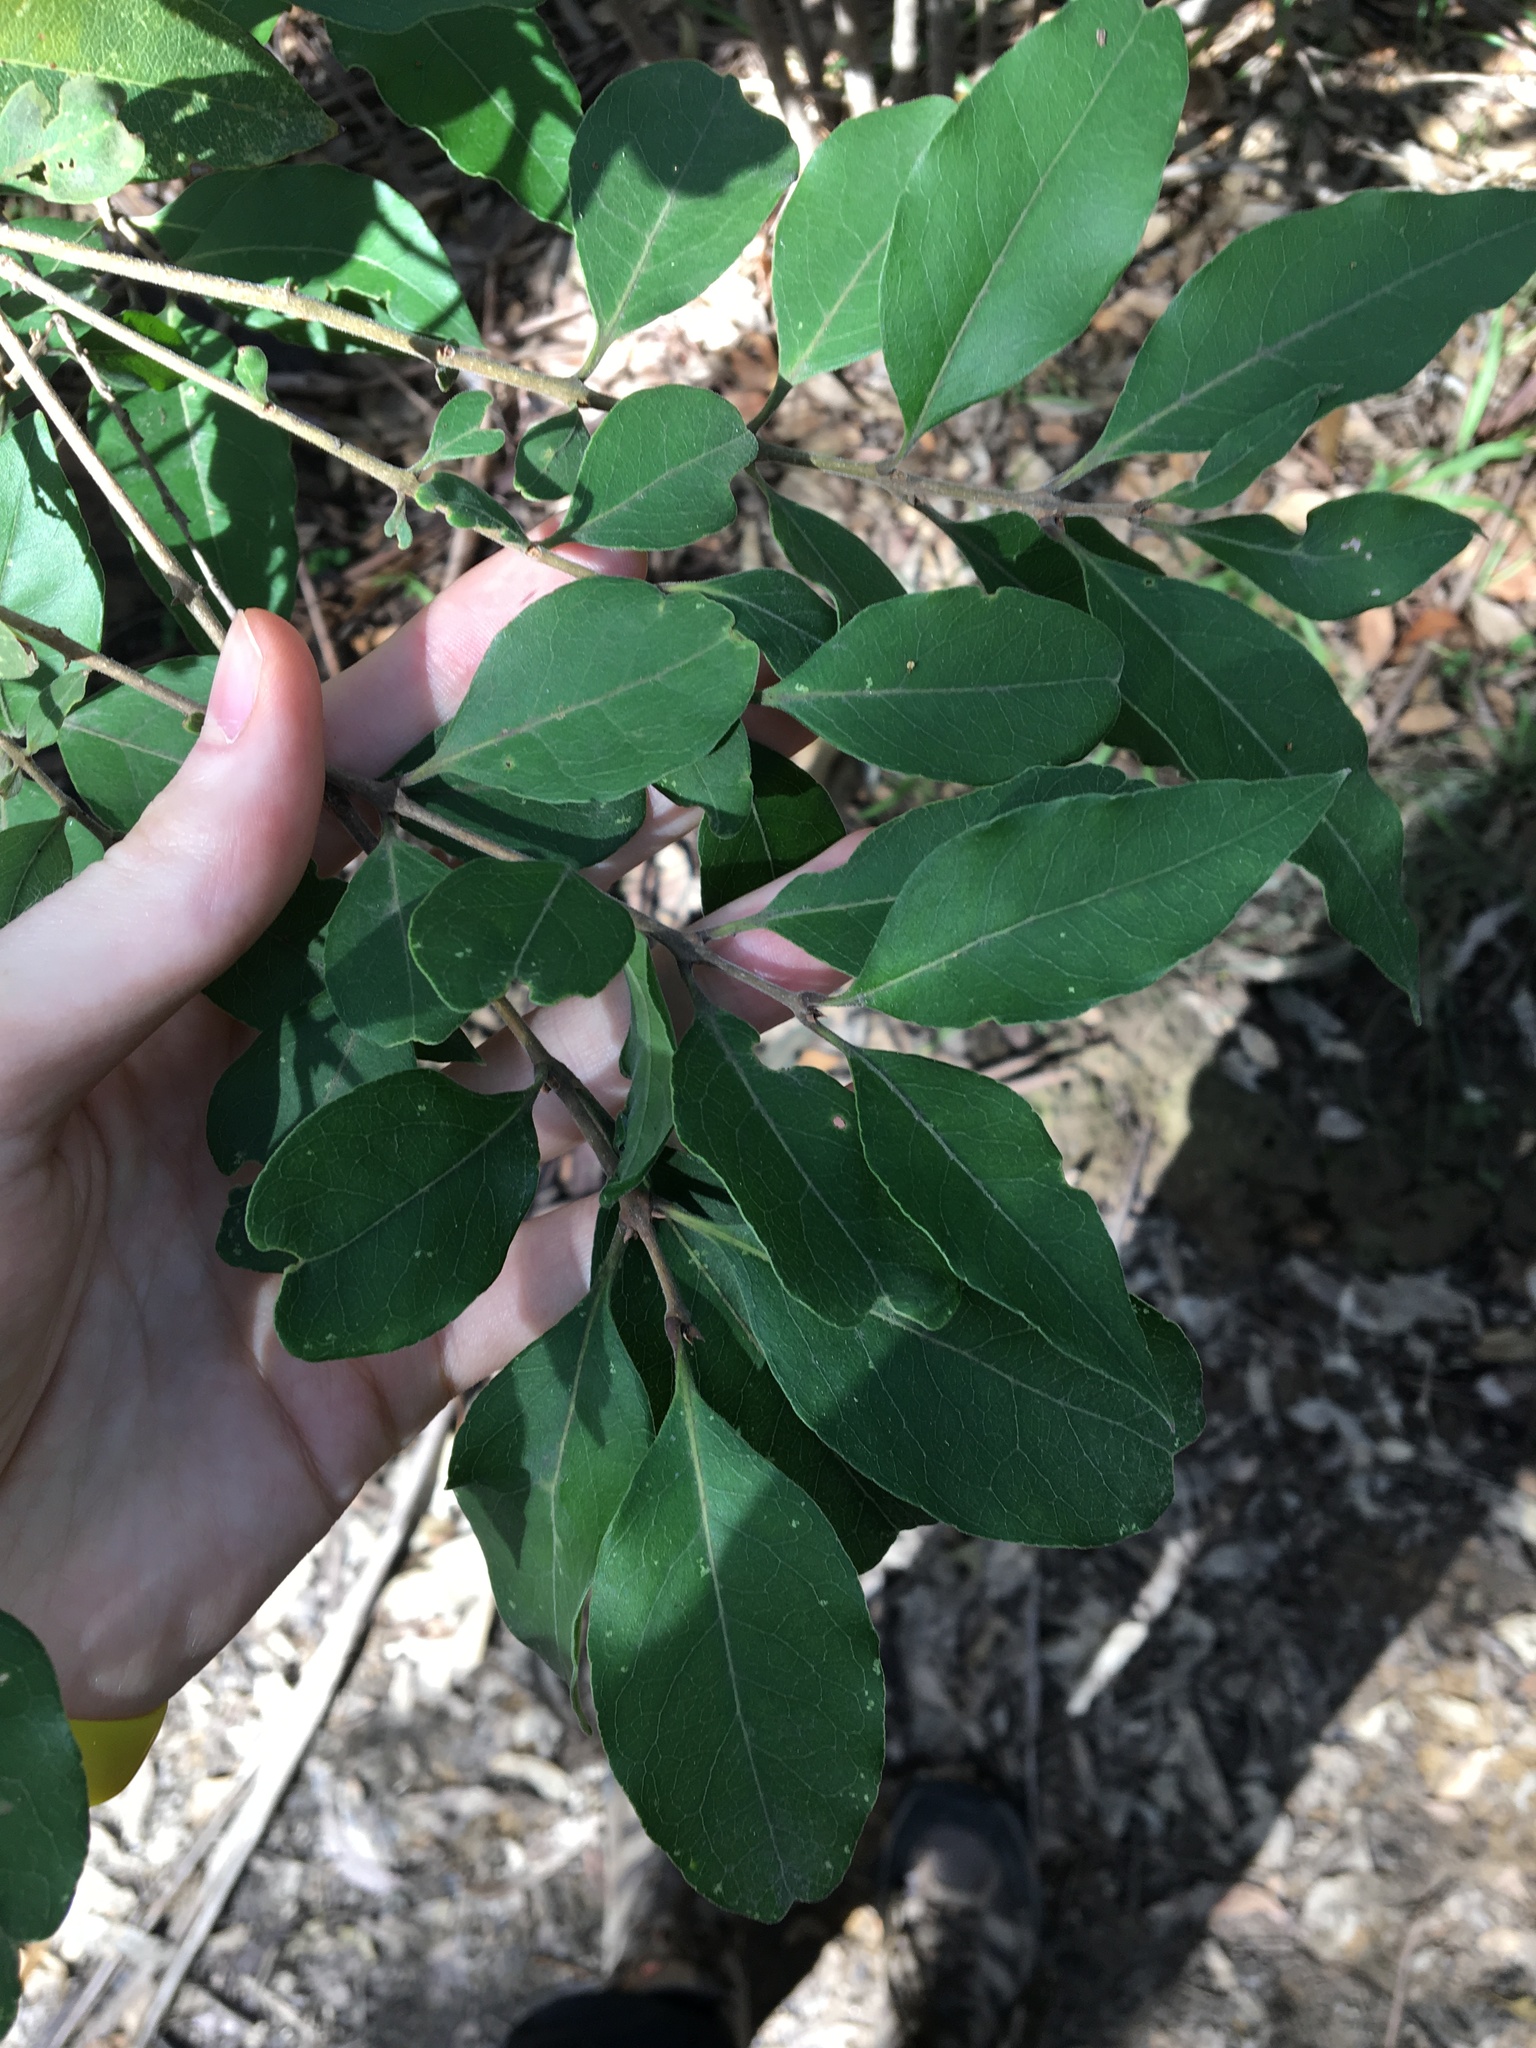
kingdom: Plantae
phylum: Tracheophyta
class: Magnoliopsida
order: Lamiales
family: Oleaceae
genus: Notelaea
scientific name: Notelaea longifolia
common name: Large mock olive
